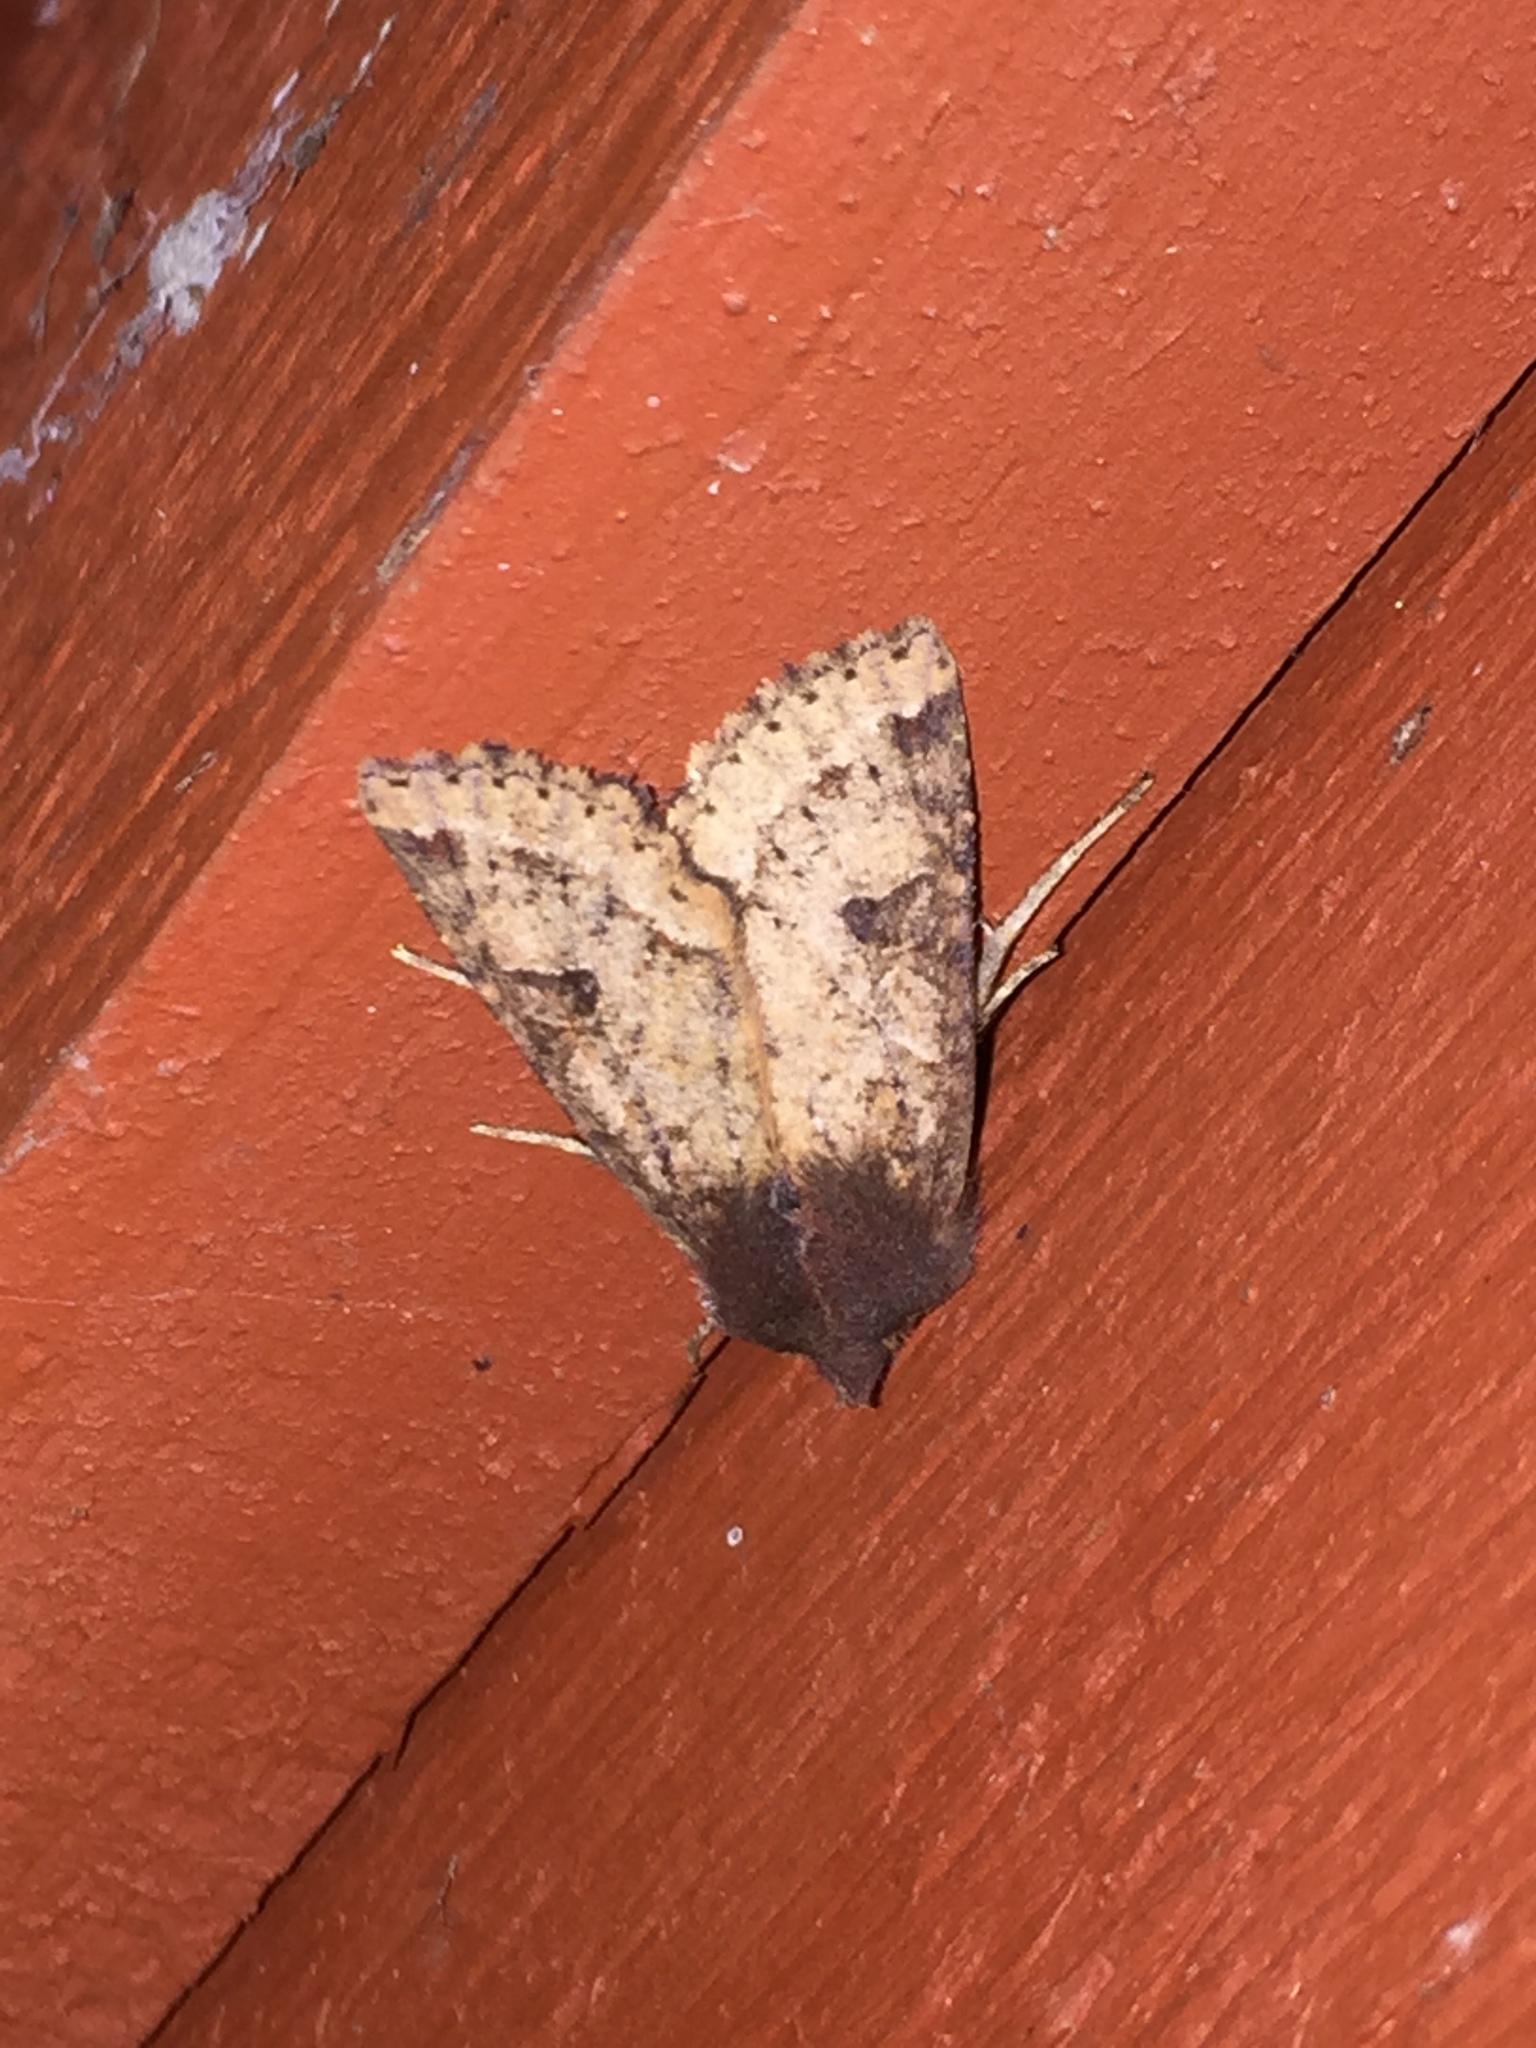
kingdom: Animalia
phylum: Arthropoda
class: Insecta
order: Lepidoptera
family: Noctuidae
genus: Orthosia
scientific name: Orthosia praeses
